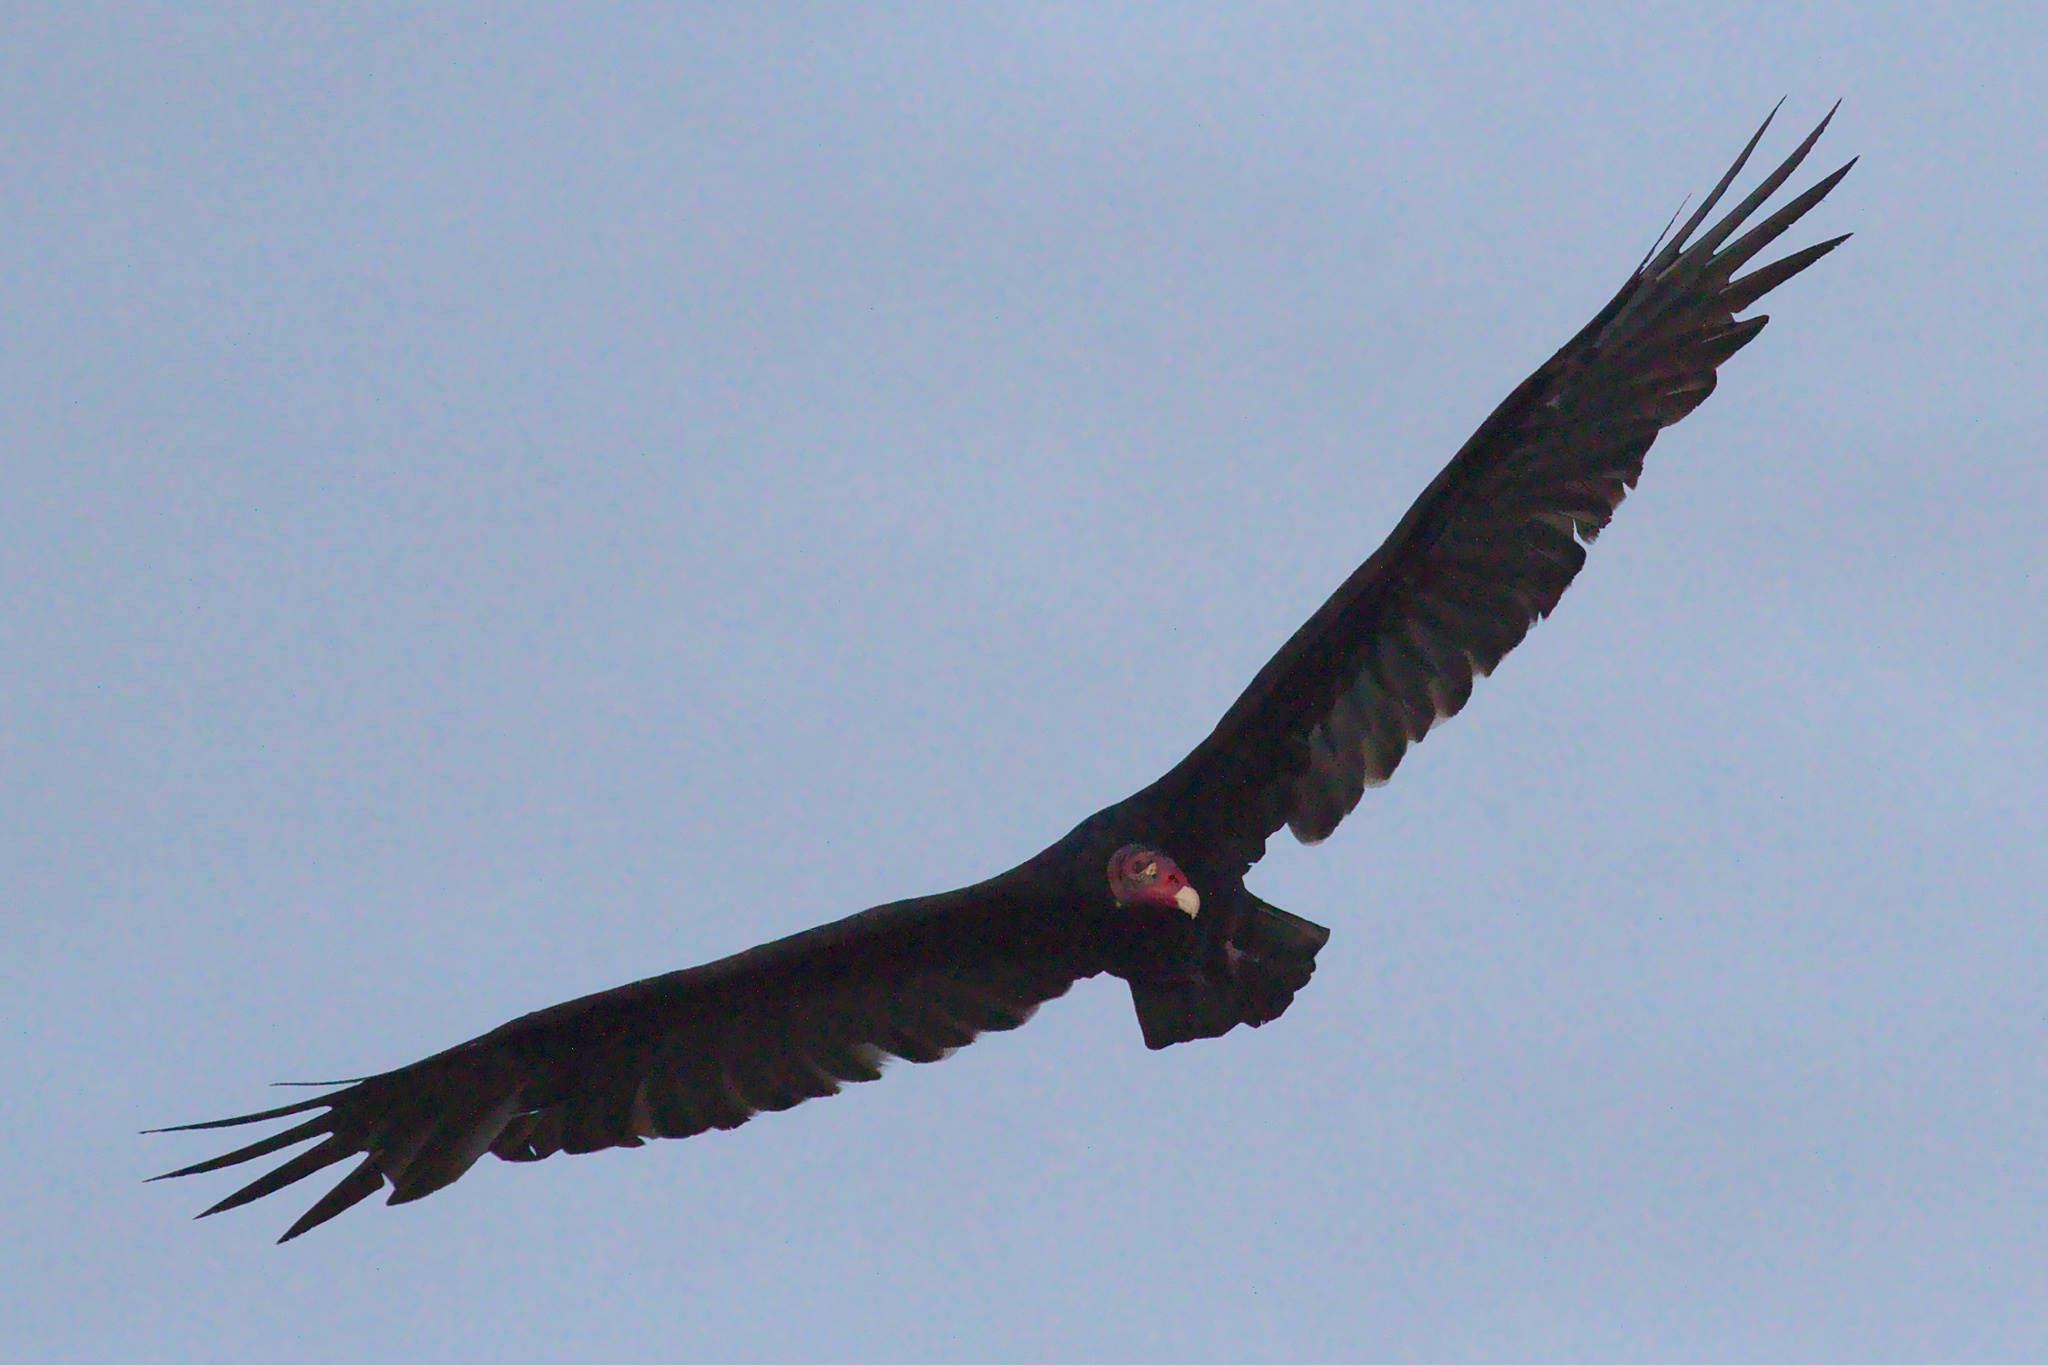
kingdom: Animalia
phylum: Chordata
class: Aves
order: Accipitriformes
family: Cathartidae
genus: Cathartes
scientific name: Cathartes aura
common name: Turkey vulture
